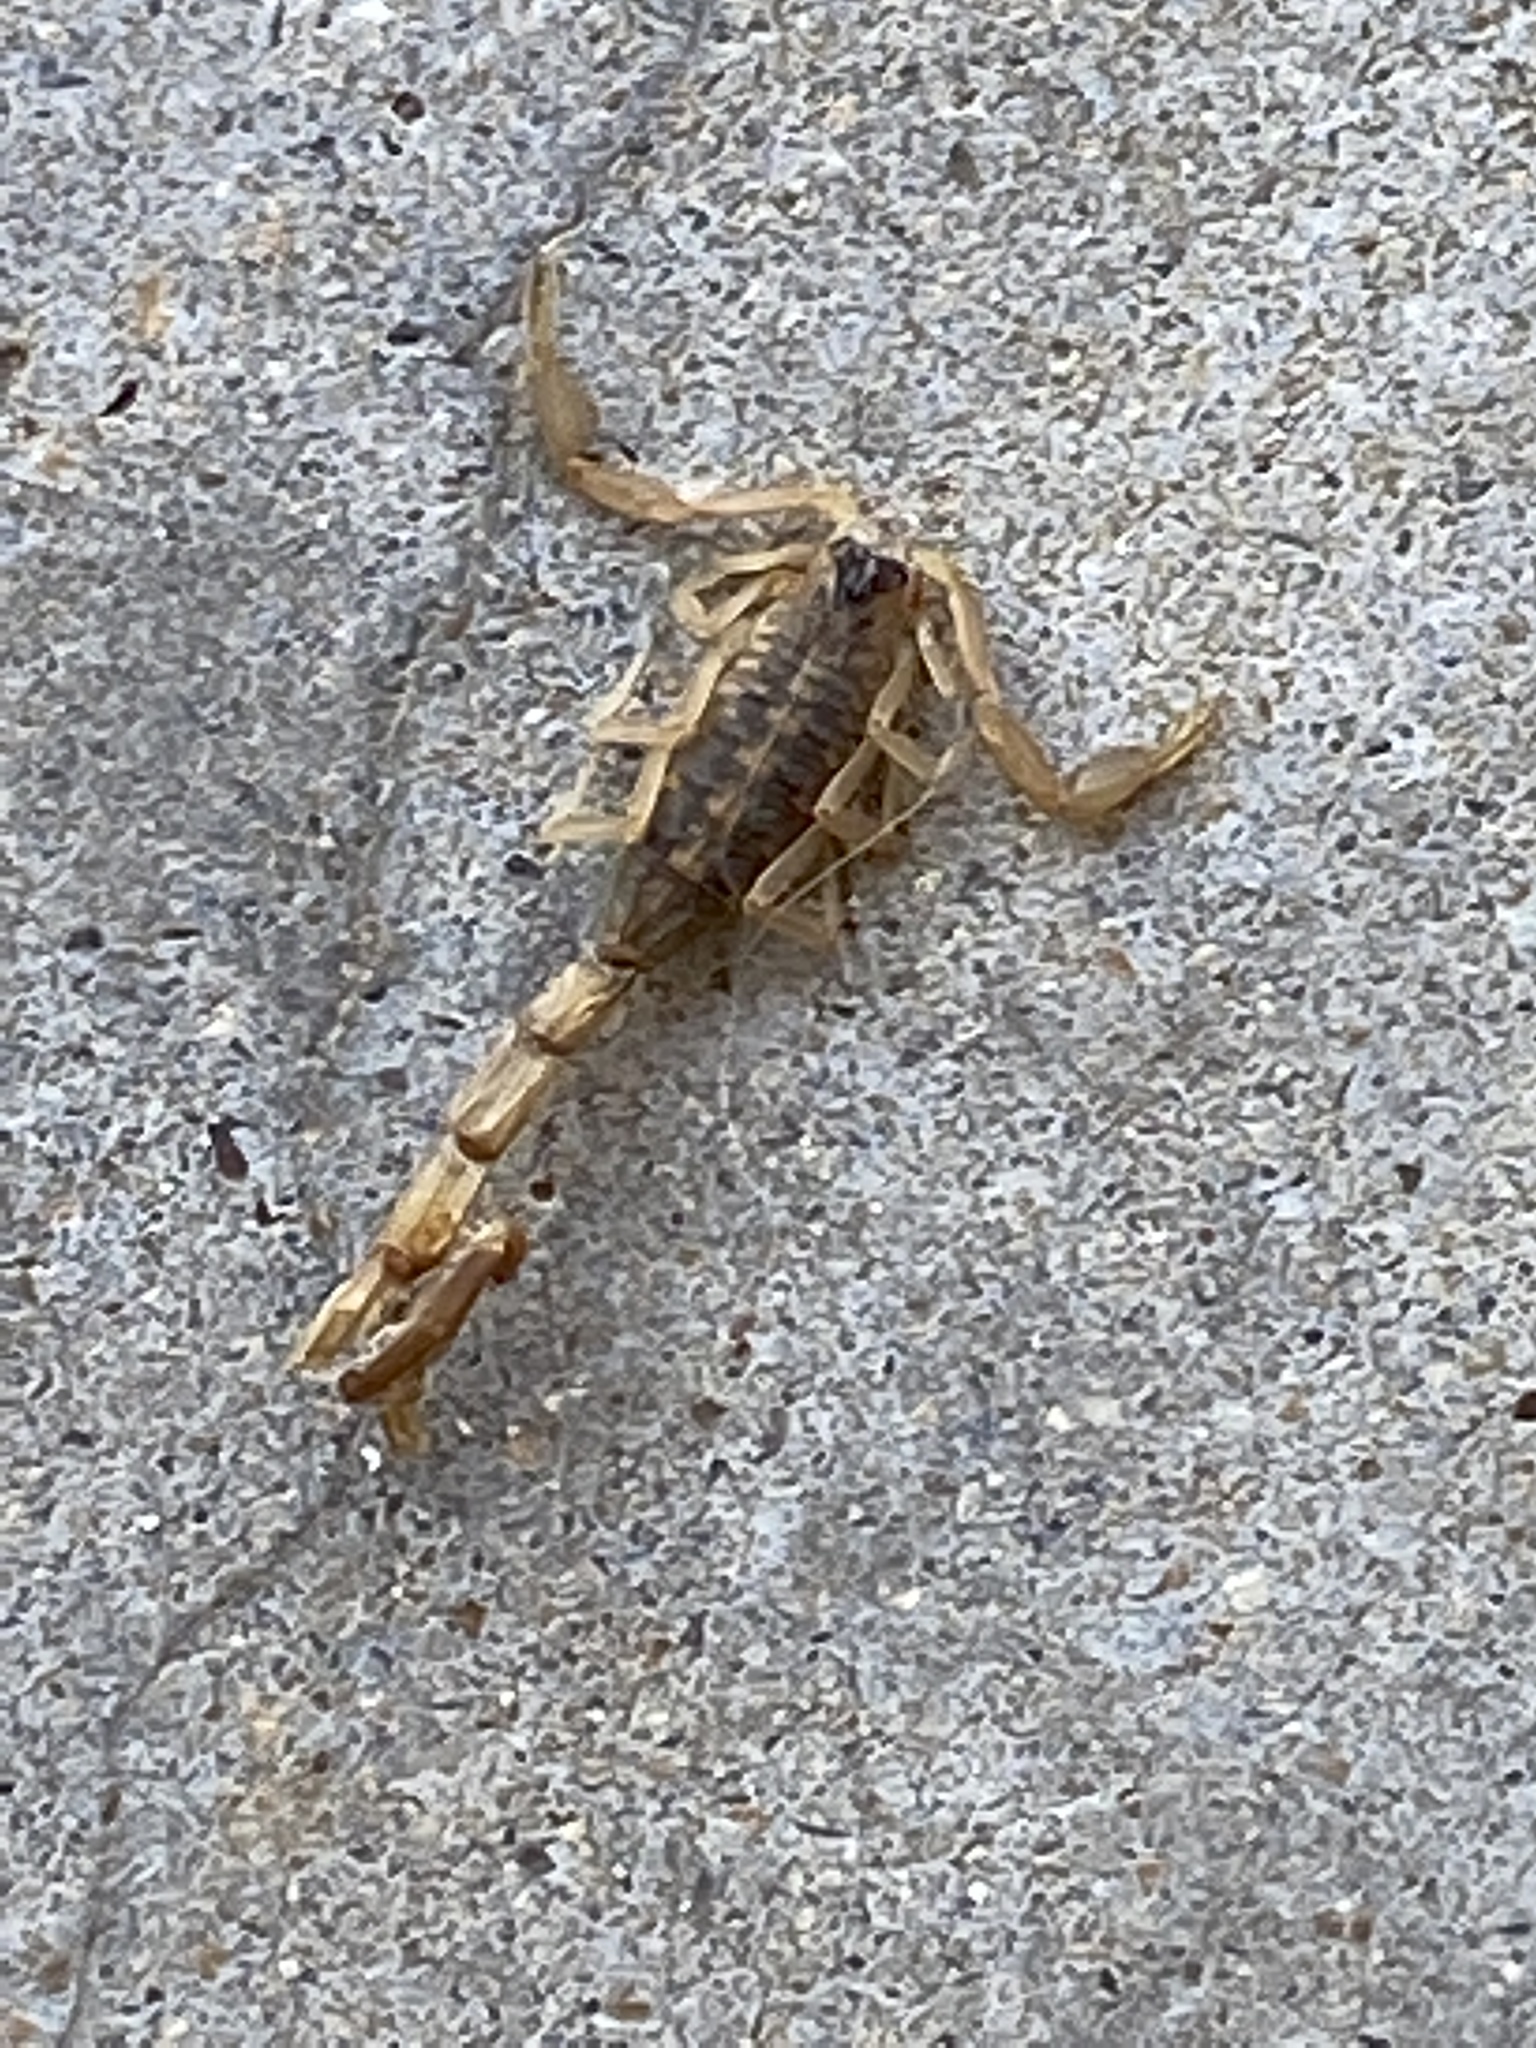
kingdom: Animalia
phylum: Arthropoda
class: Arachnida
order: Scorpiones
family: Buthidae
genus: Centruroides
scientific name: Centruroides vittatus
